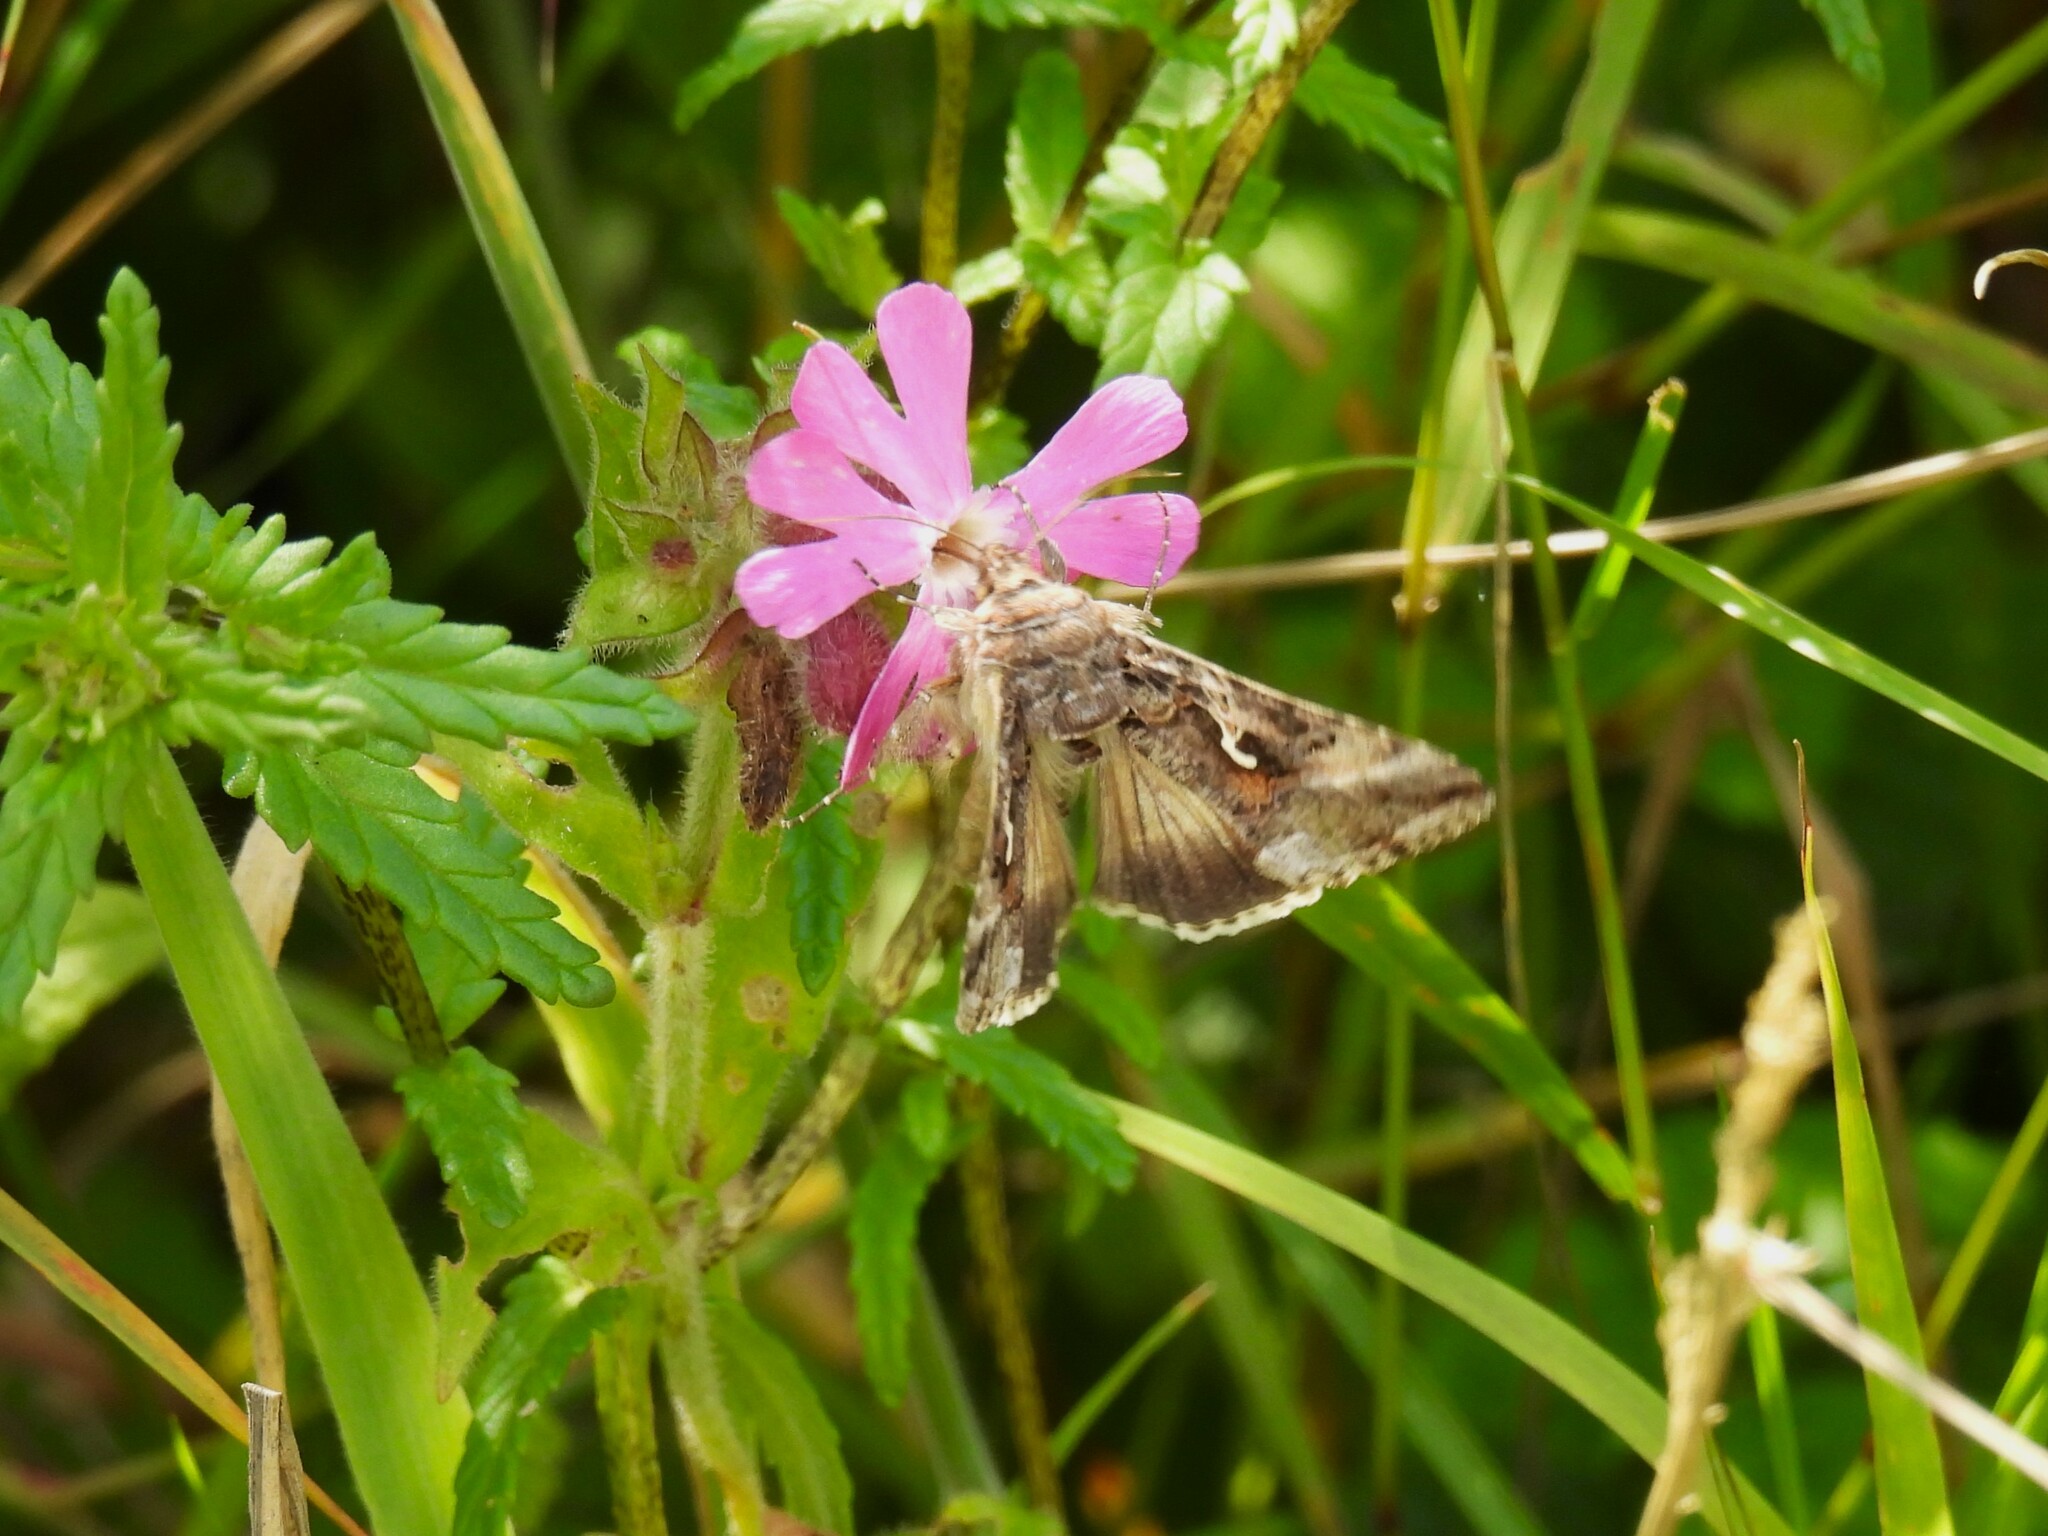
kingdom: Animalia
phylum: Arthropoda
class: Insecta
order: Lepidoptera
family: Noctuidae
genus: Autographa
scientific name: Autographa gamma
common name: Silver y
